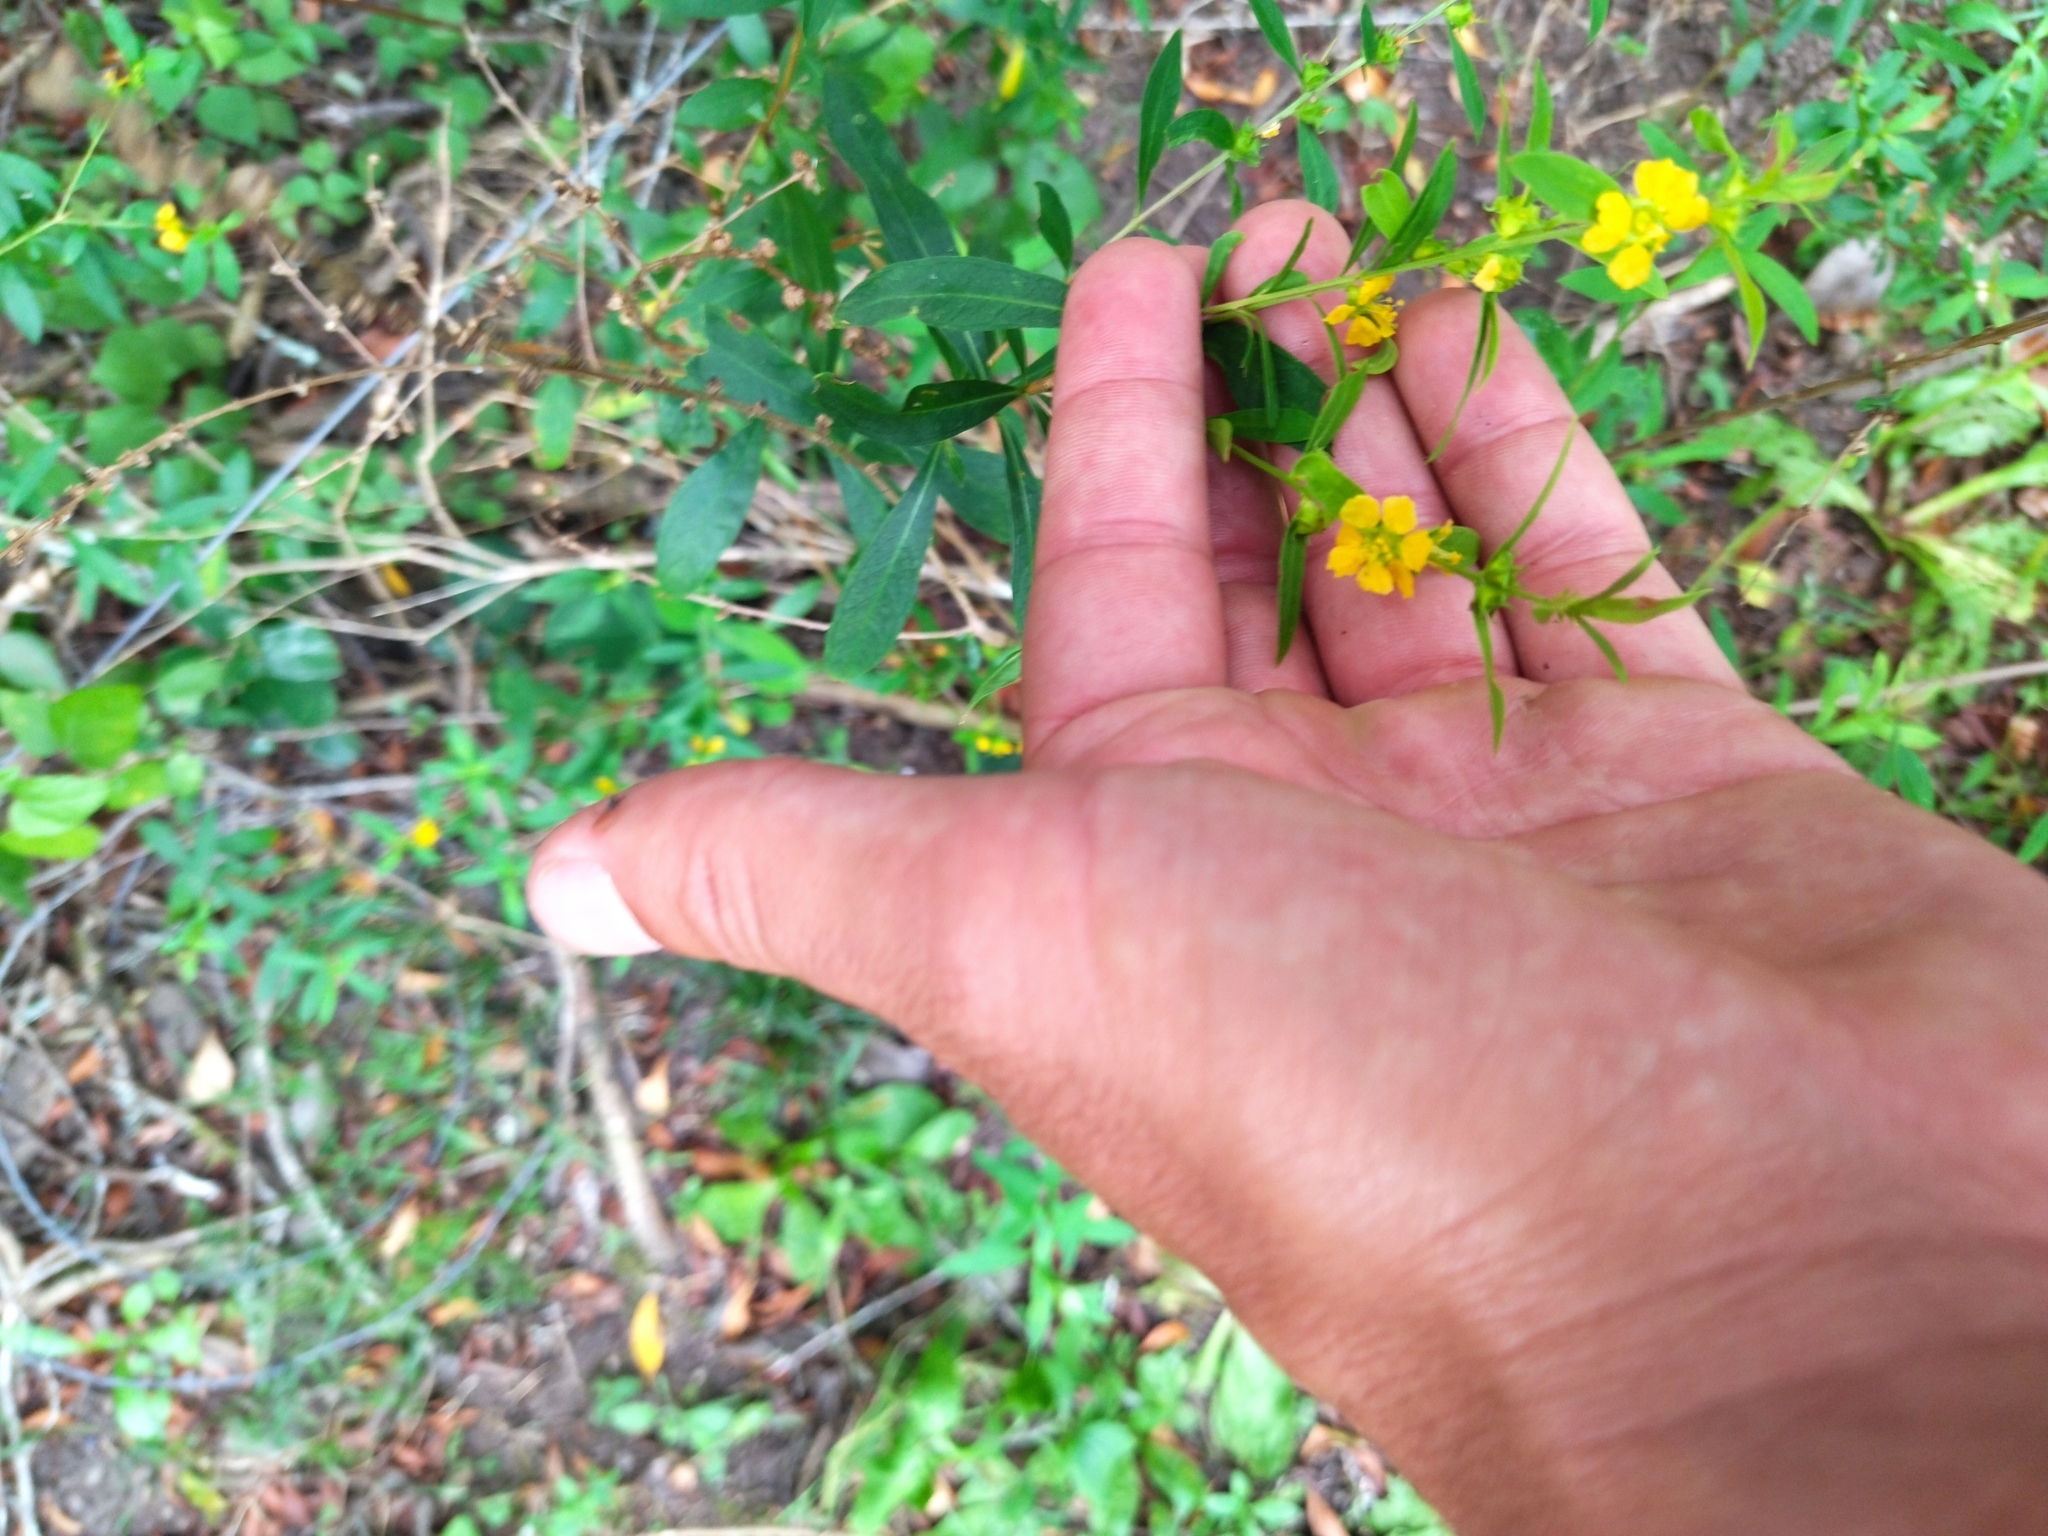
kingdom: Plantae
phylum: Tracheophyta
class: Magnoliopsida
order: Myrtales
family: Lythraceae
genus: Heimia
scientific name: Heimia apetala
